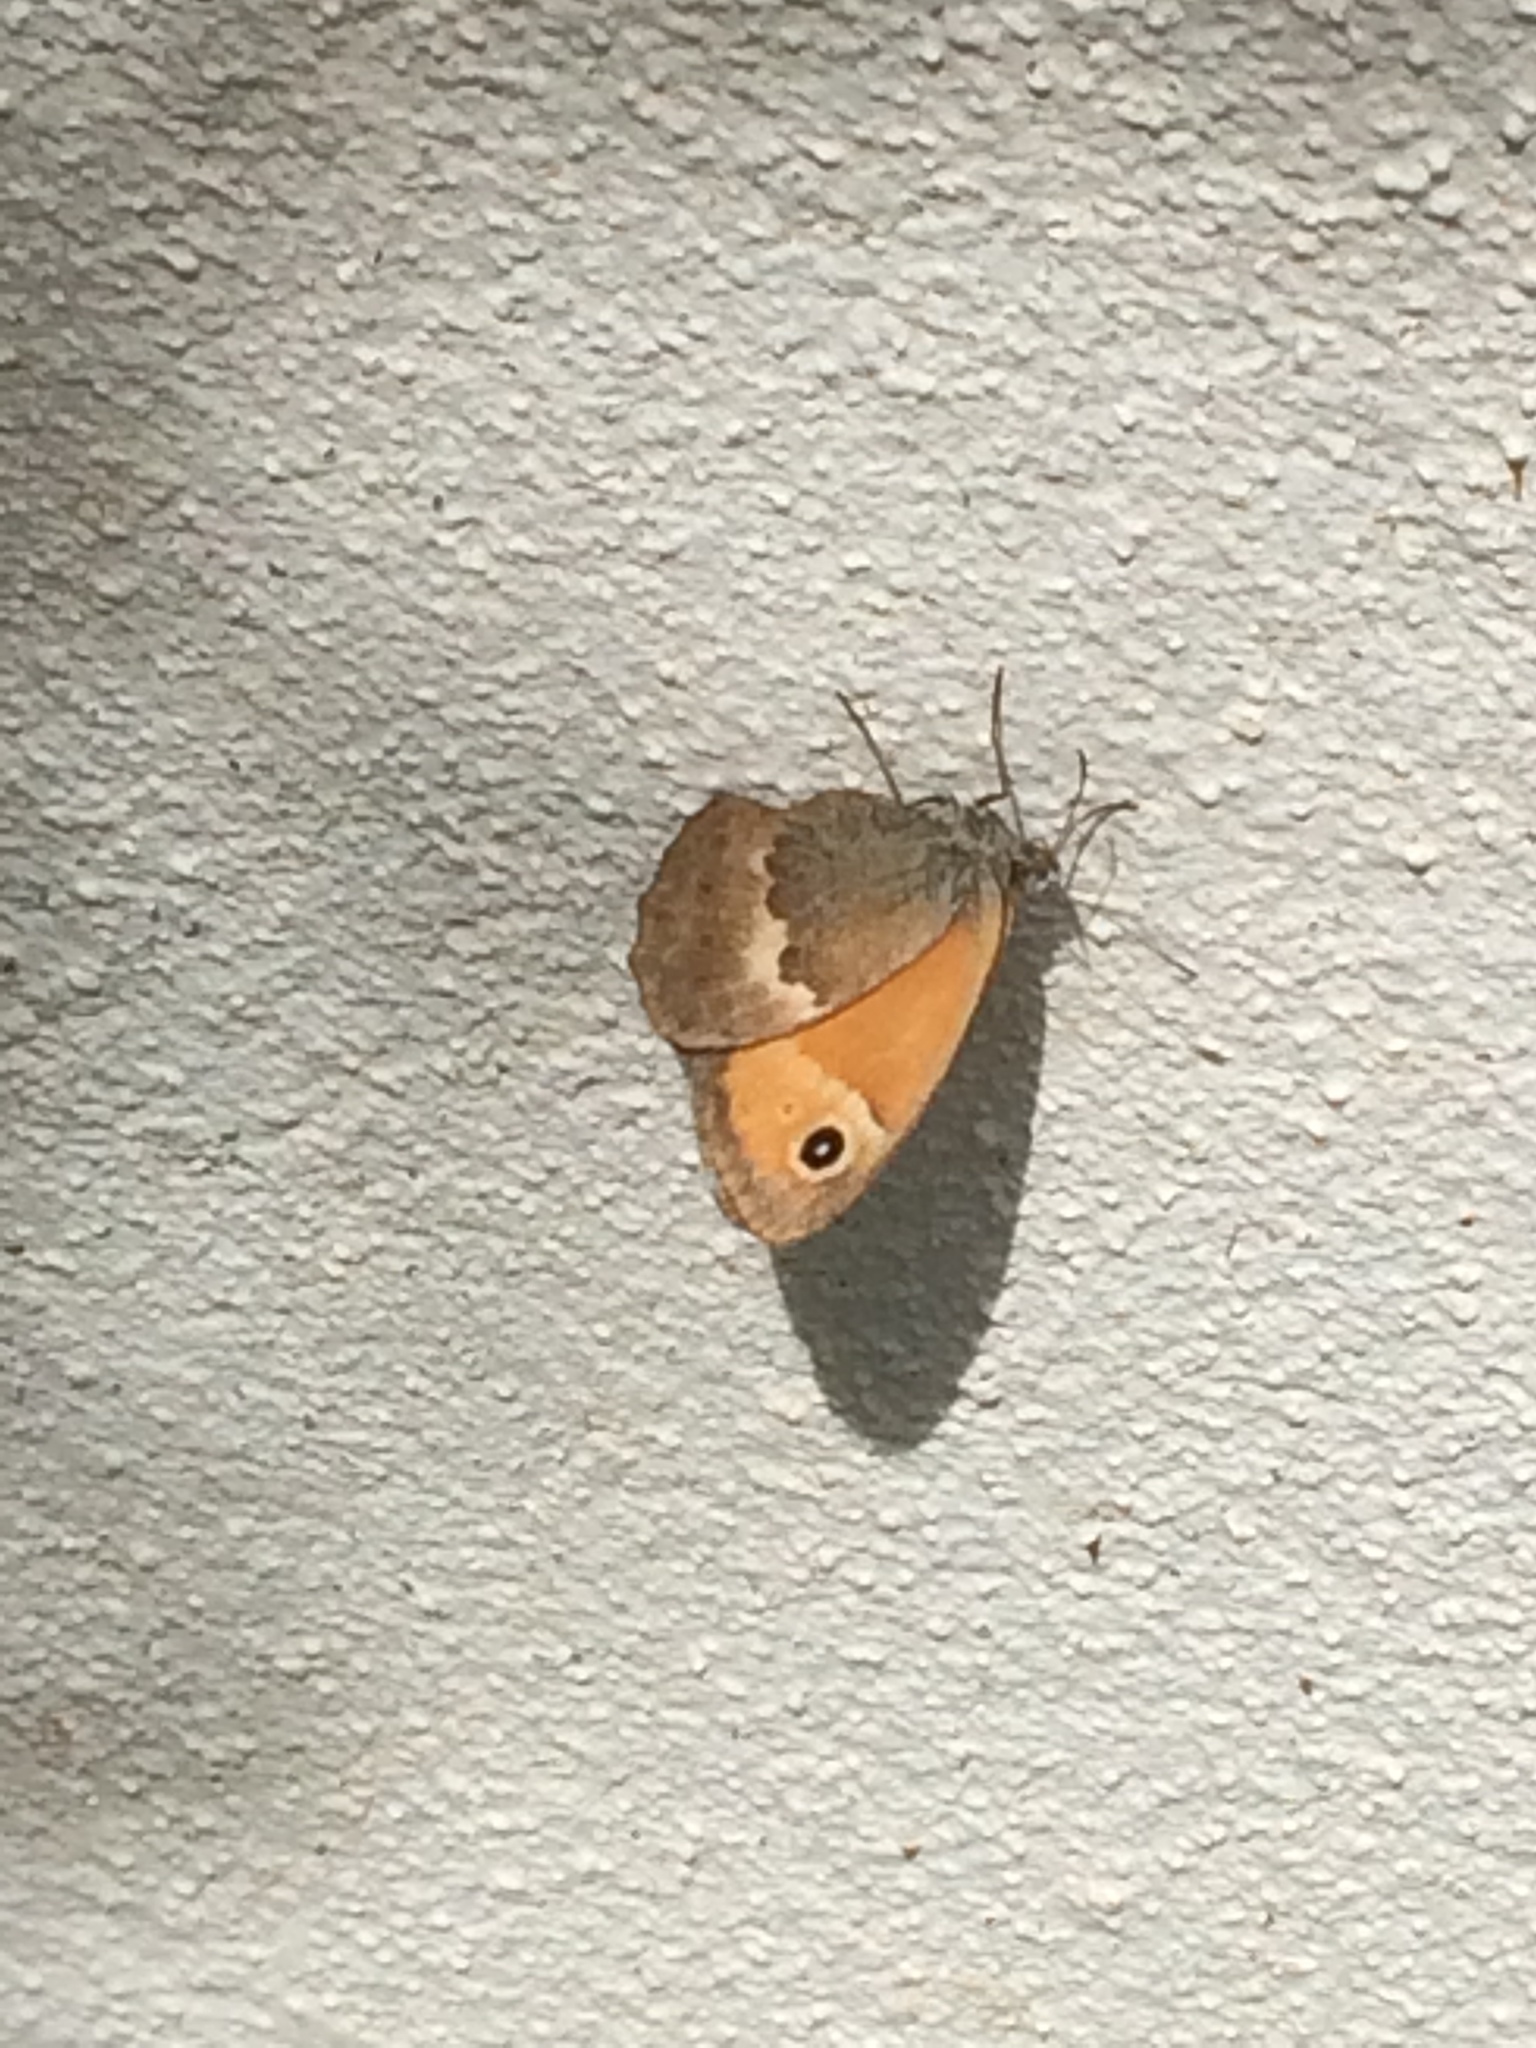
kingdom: Animalia
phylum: Arthropoda
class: Insecta
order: Lepidoptera
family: Nymphalidae
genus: Coenonympha
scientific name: Coenonympha pamphilus
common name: Small heath
